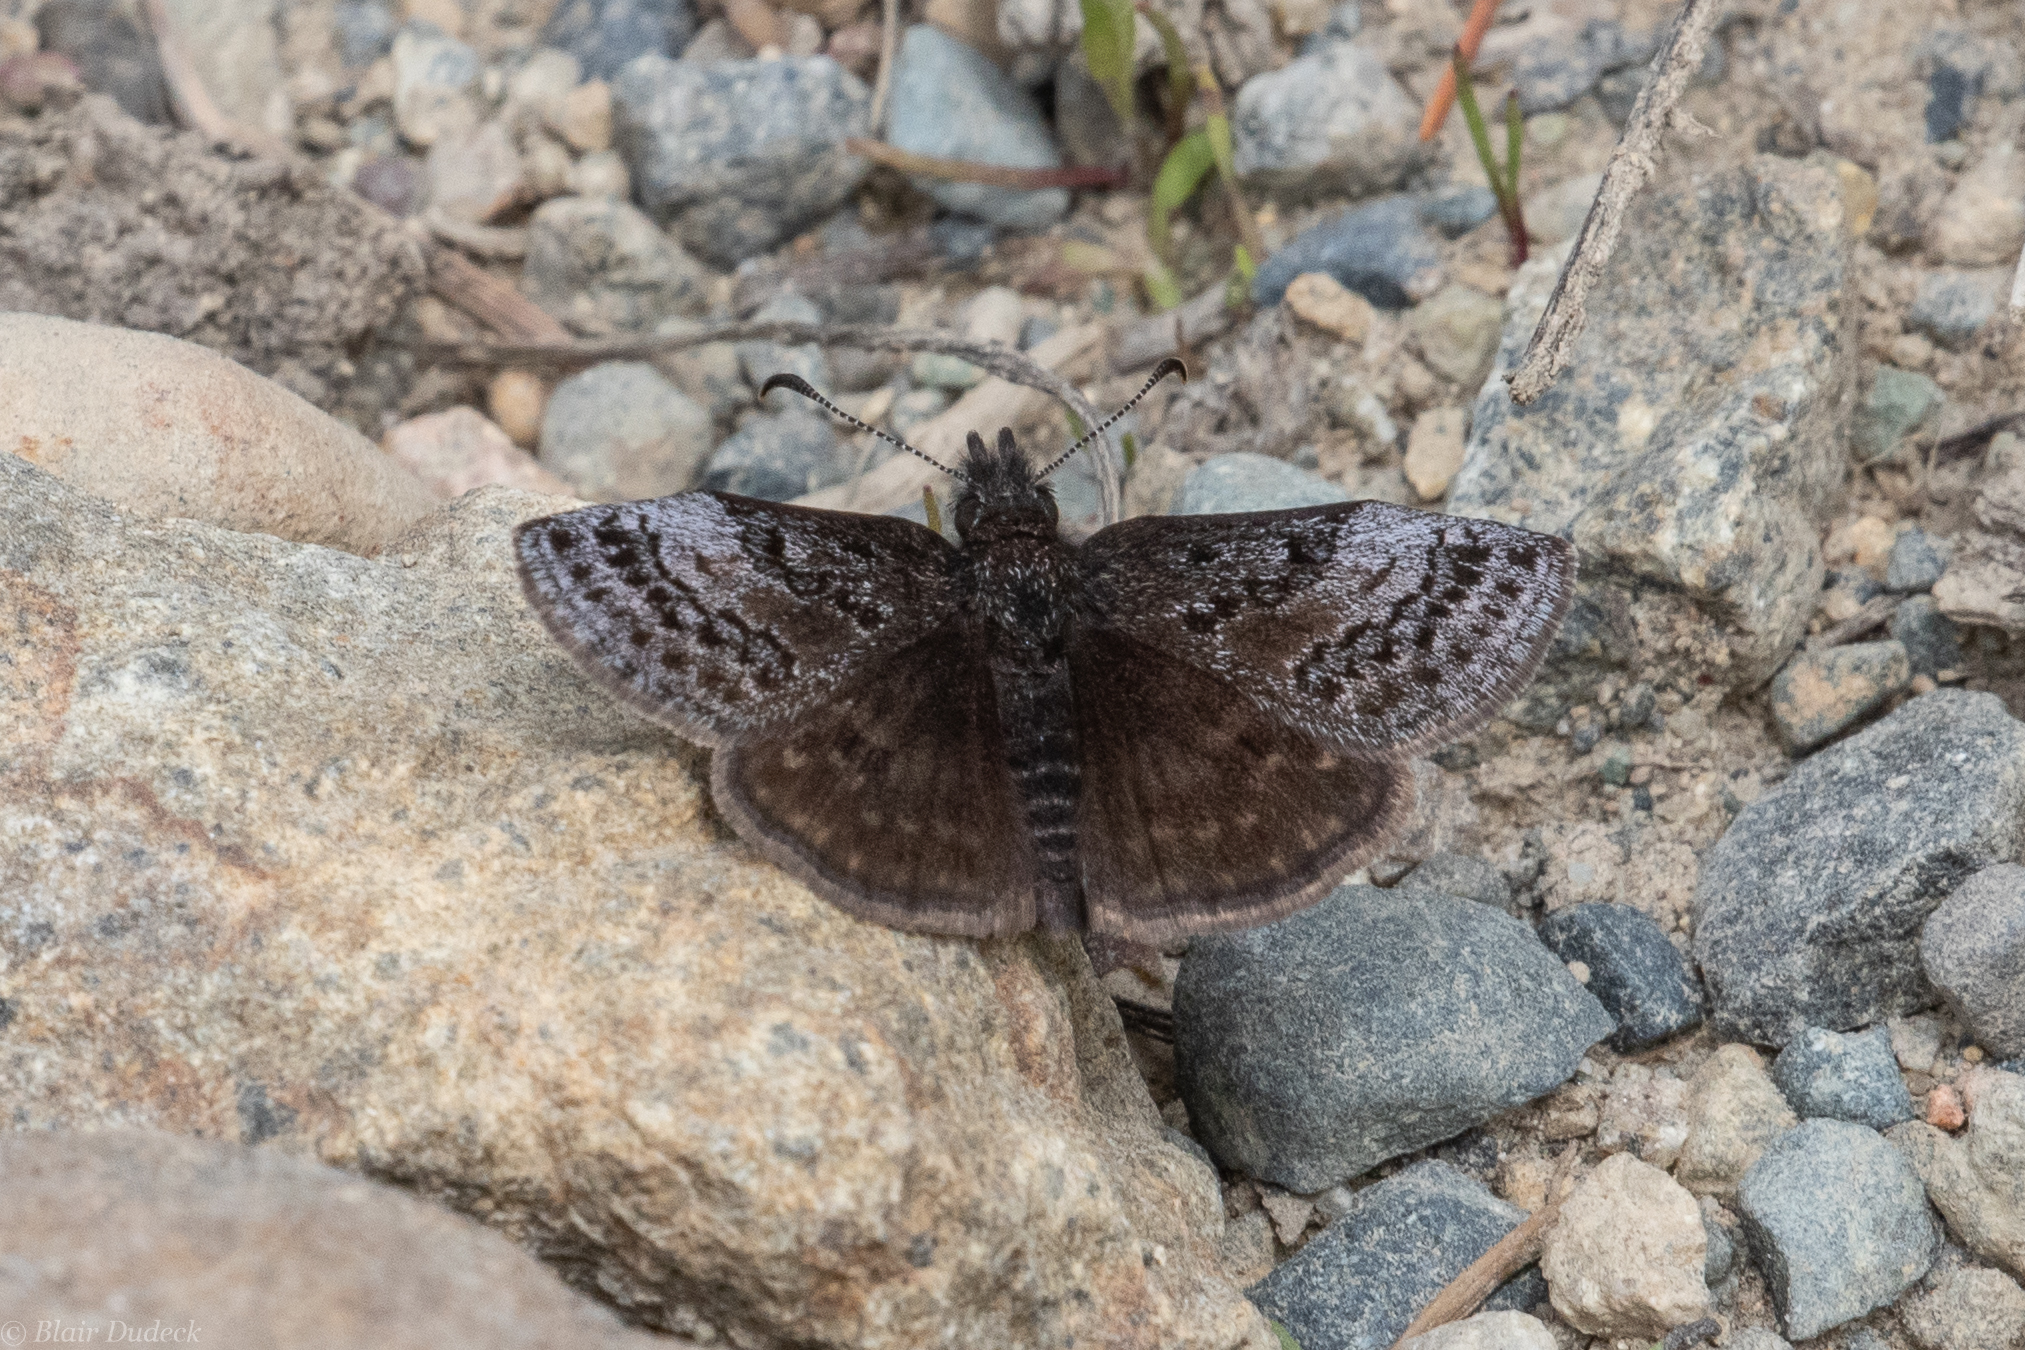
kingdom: Animalia
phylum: Arthropoda
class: Insecta
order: Lepidoptera
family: Hesperiidae
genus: Erynnis
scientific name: Erynnis icelus
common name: Dreamy duskywing
